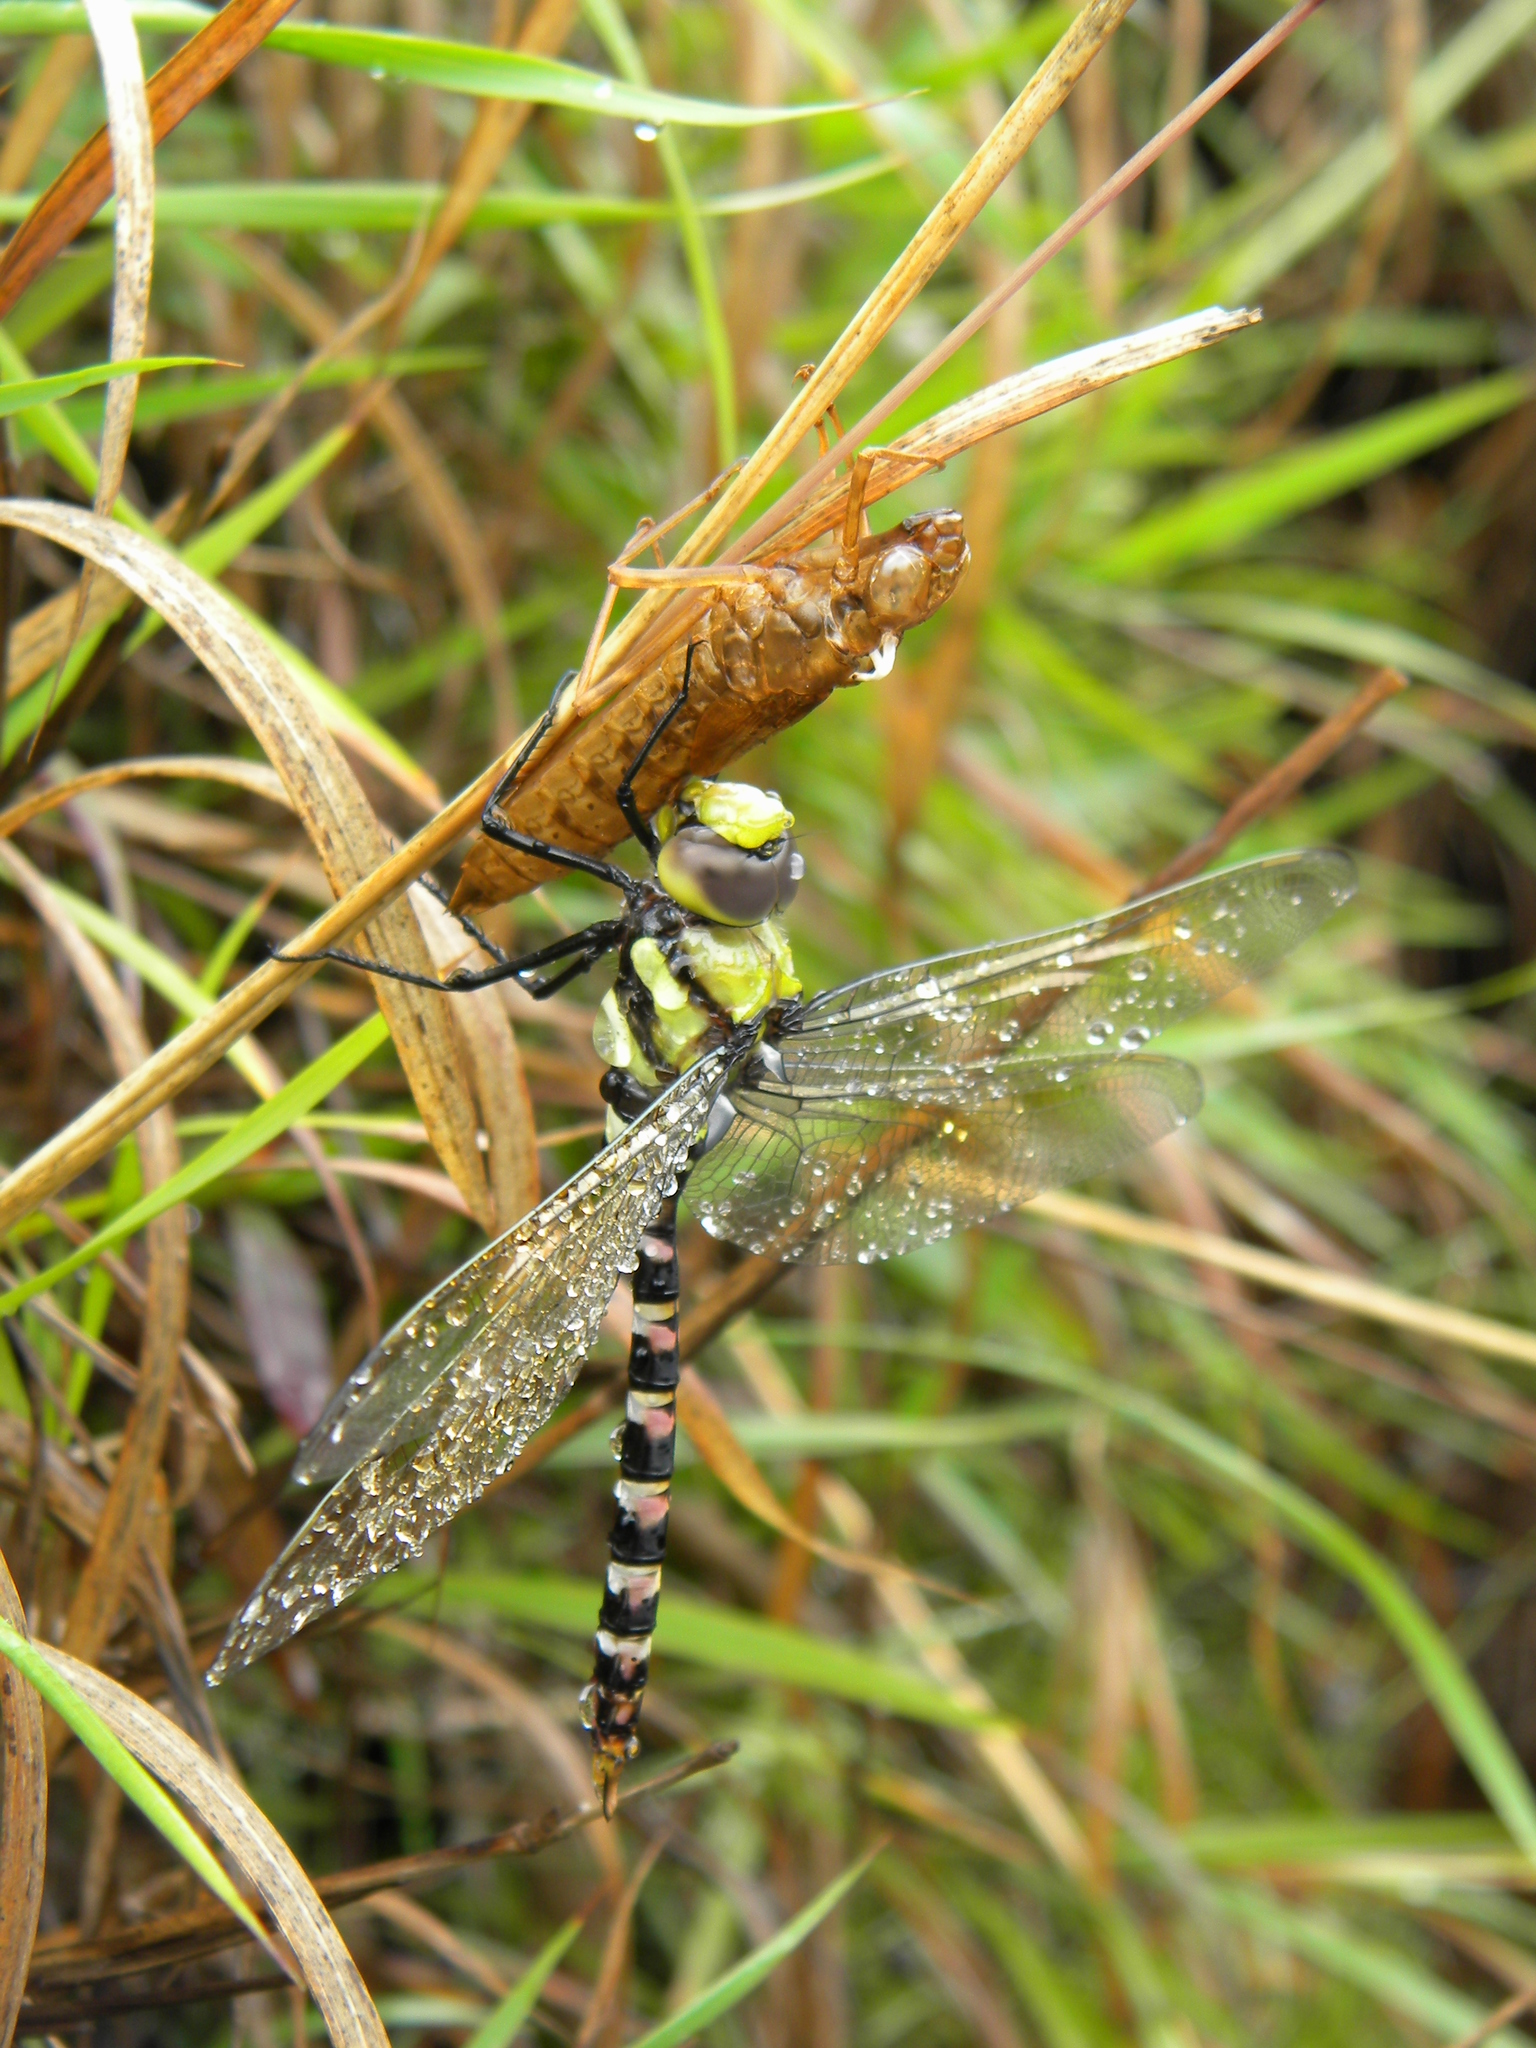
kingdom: Animalia
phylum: Arthropoda
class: Insecta
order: Odonata
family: Aeshnidae
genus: Anax
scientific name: Anax immaculifrons
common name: Magnificent emperor
